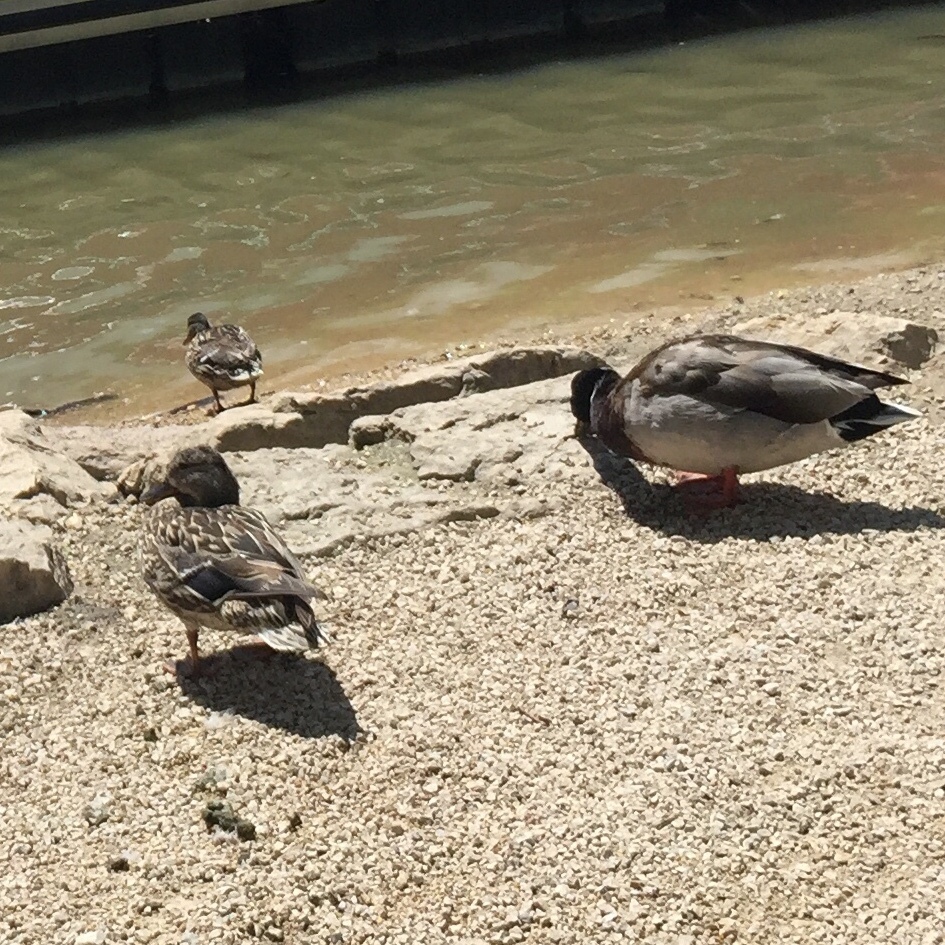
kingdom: Animalia
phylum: Chordata
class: Aves
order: Anseriformes
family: Anatidae
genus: Anas
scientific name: Anas platyrhynchos
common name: Mallard
